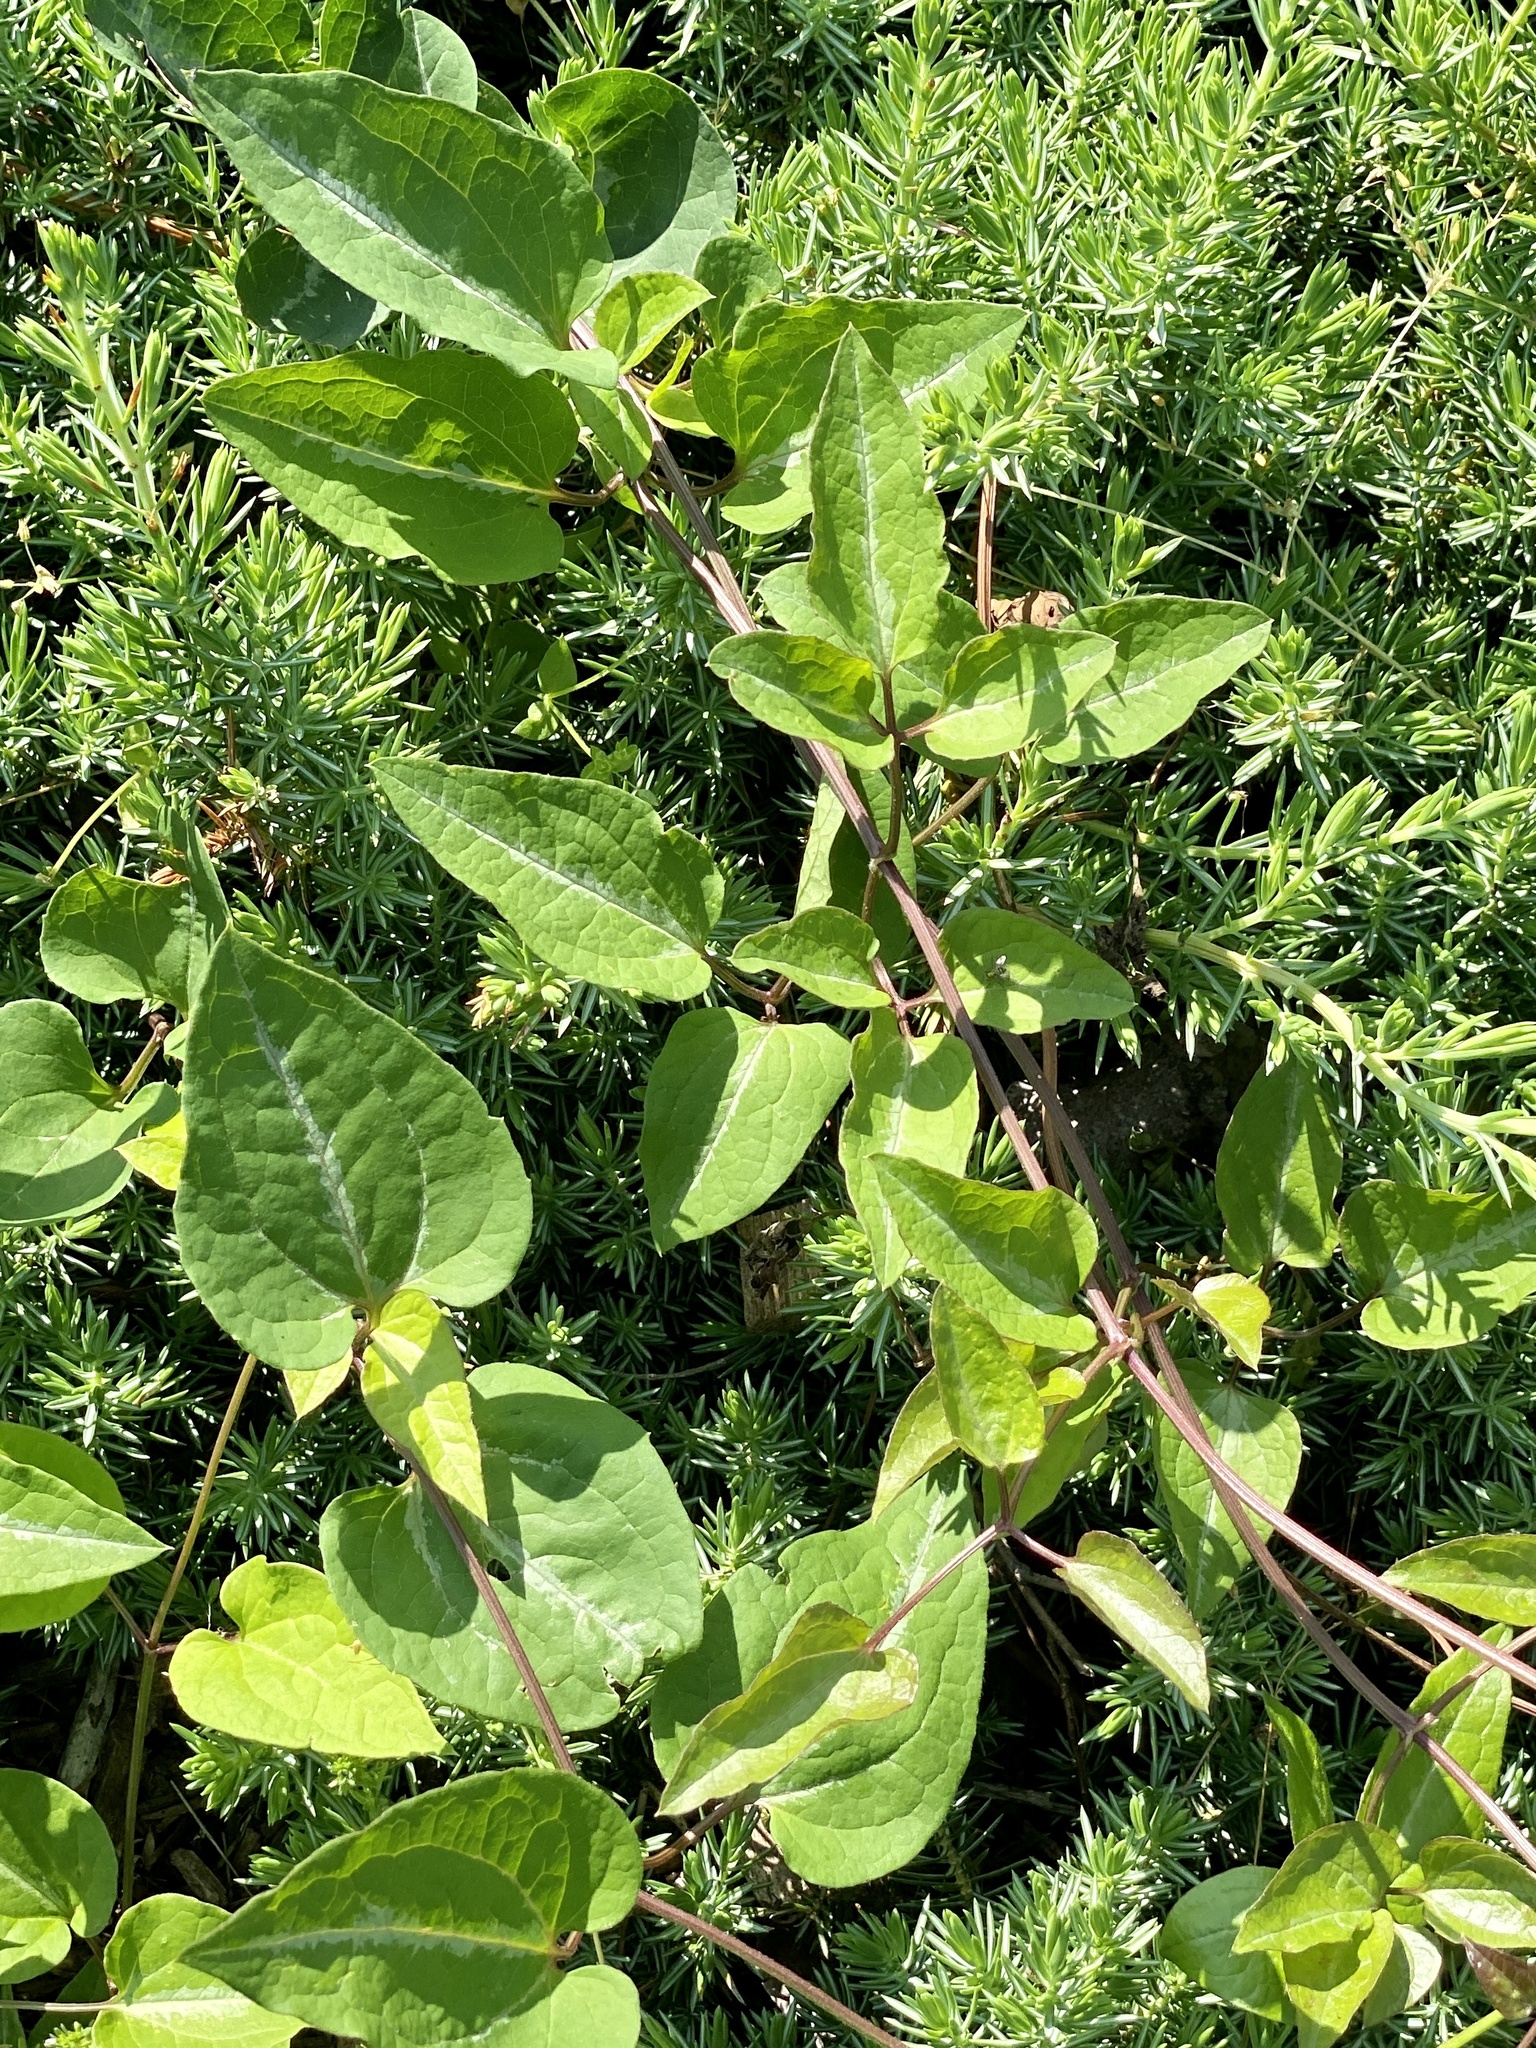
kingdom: Plantae
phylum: Tracheophyta
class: Magnoliopsida
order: Ranunculales
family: Ranunculaceae
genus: Clematis
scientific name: Clematis terniflora
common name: Sweet autumn clematis
